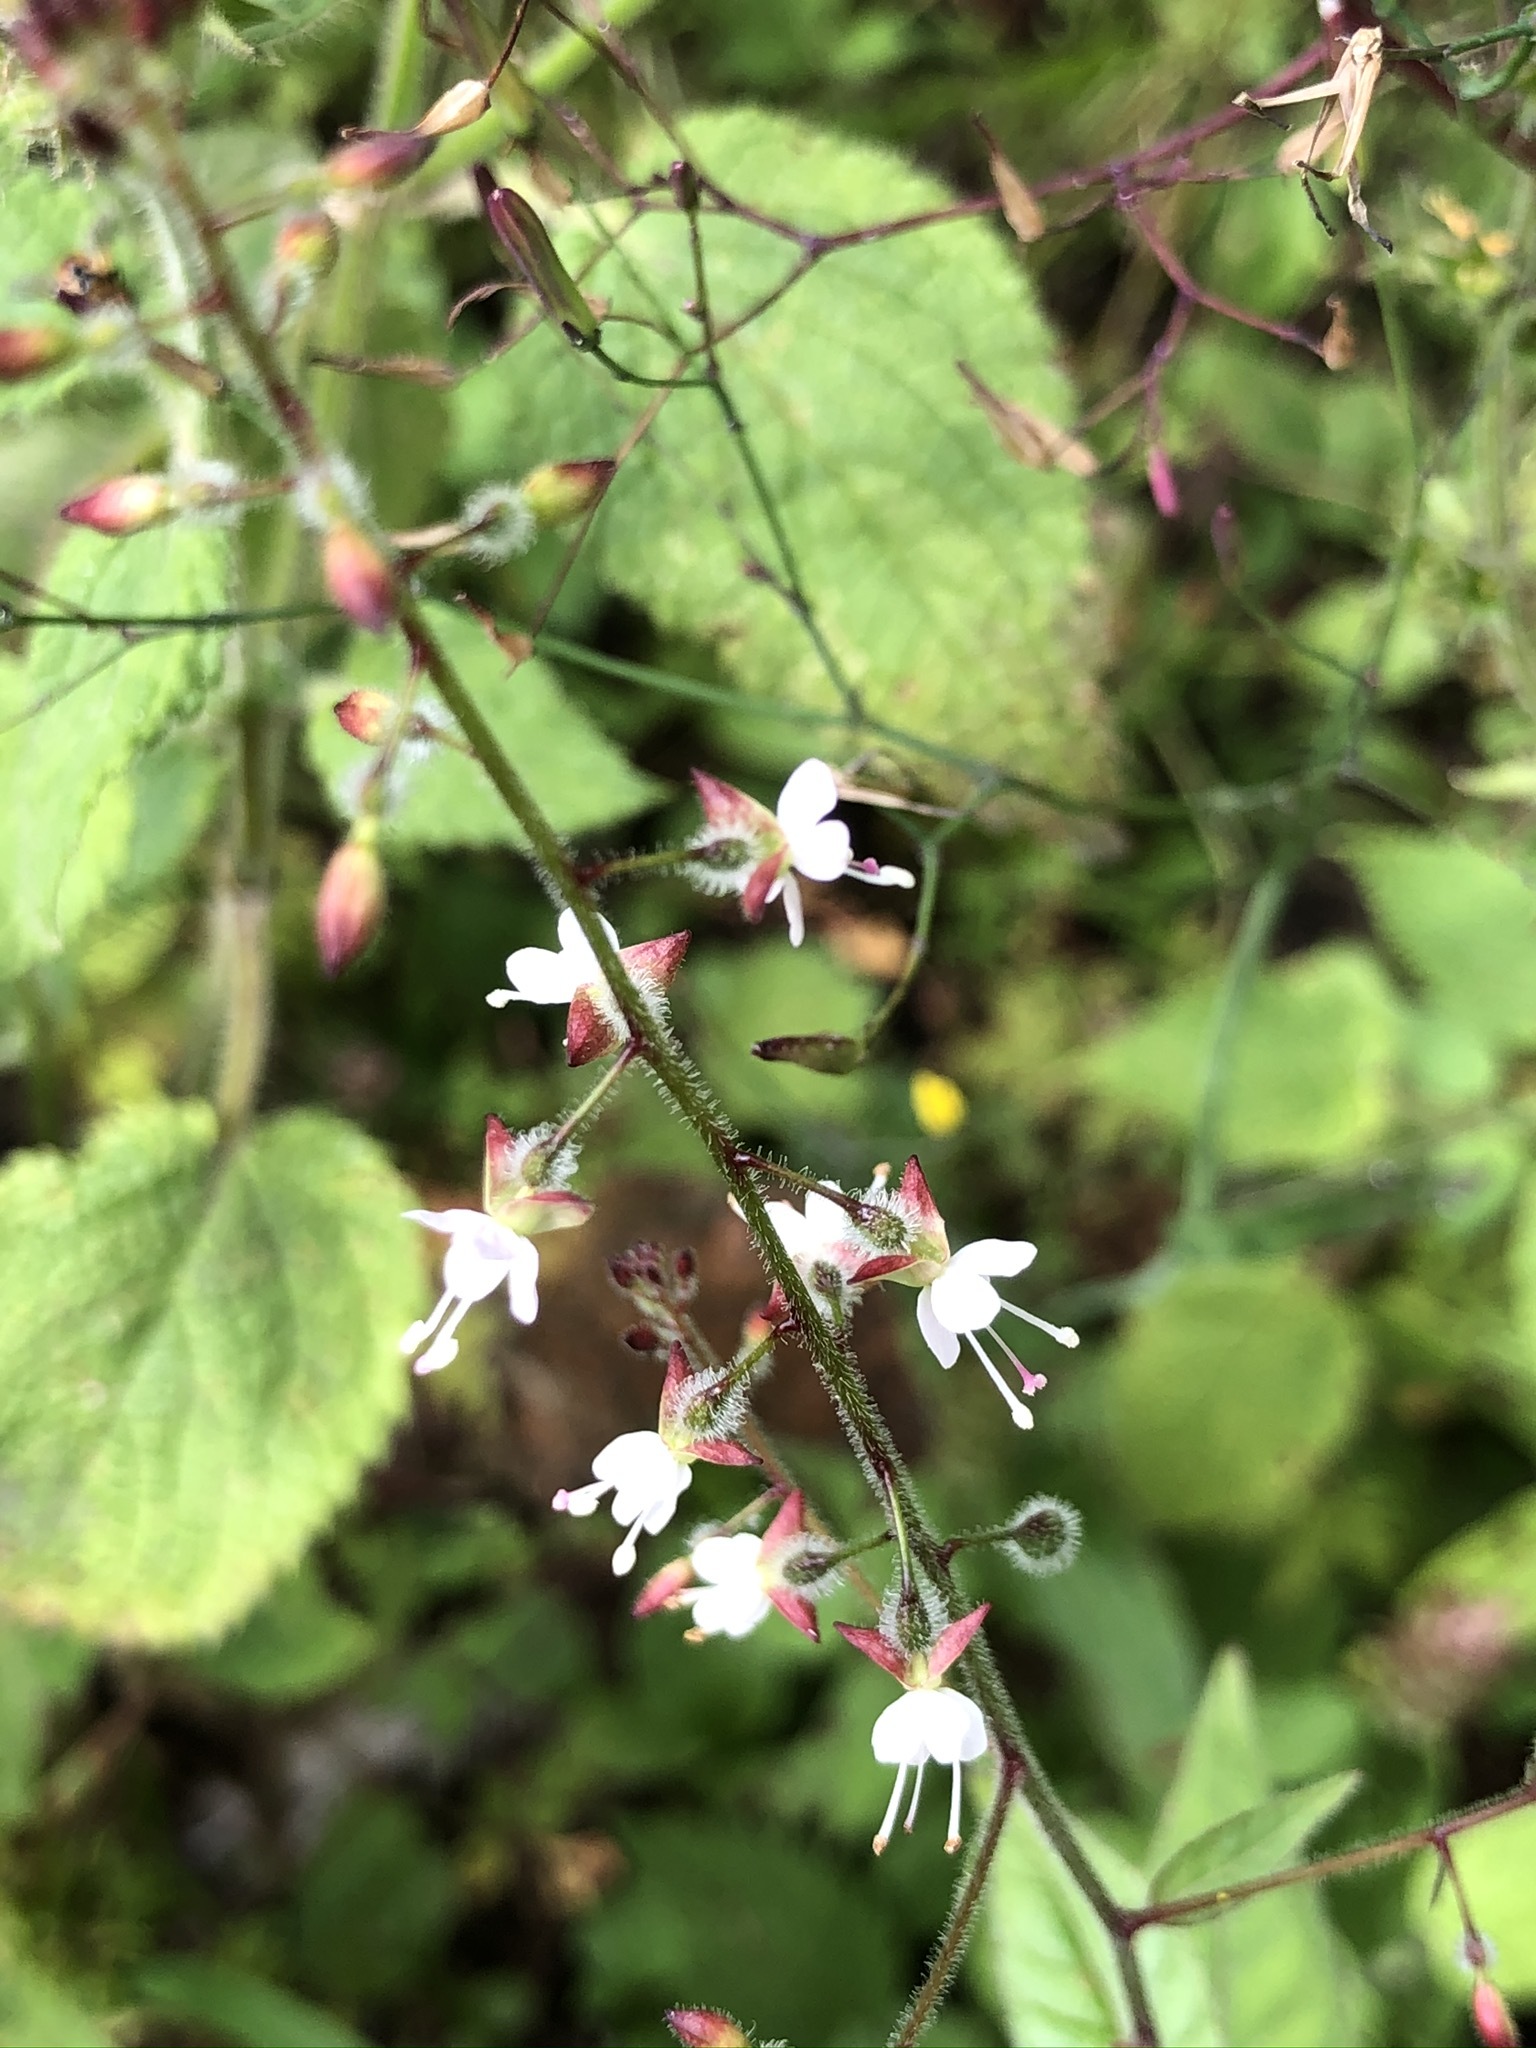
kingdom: Plantae
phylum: Tracheophyta
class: Magnoliopsida
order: Myrtales
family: Onagraceae
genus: Circaea
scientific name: Circaea lutetiana
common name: Enchanter's-nightshade
